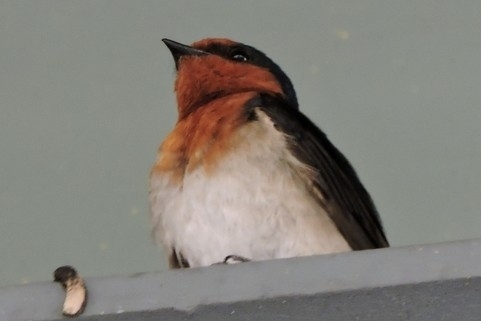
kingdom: Animalia
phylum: Chordata
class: Aves
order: Passeriformes
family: Hirundinidae
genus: Hirundo
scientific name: Hirundo neoxena
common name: Welcome swallow
